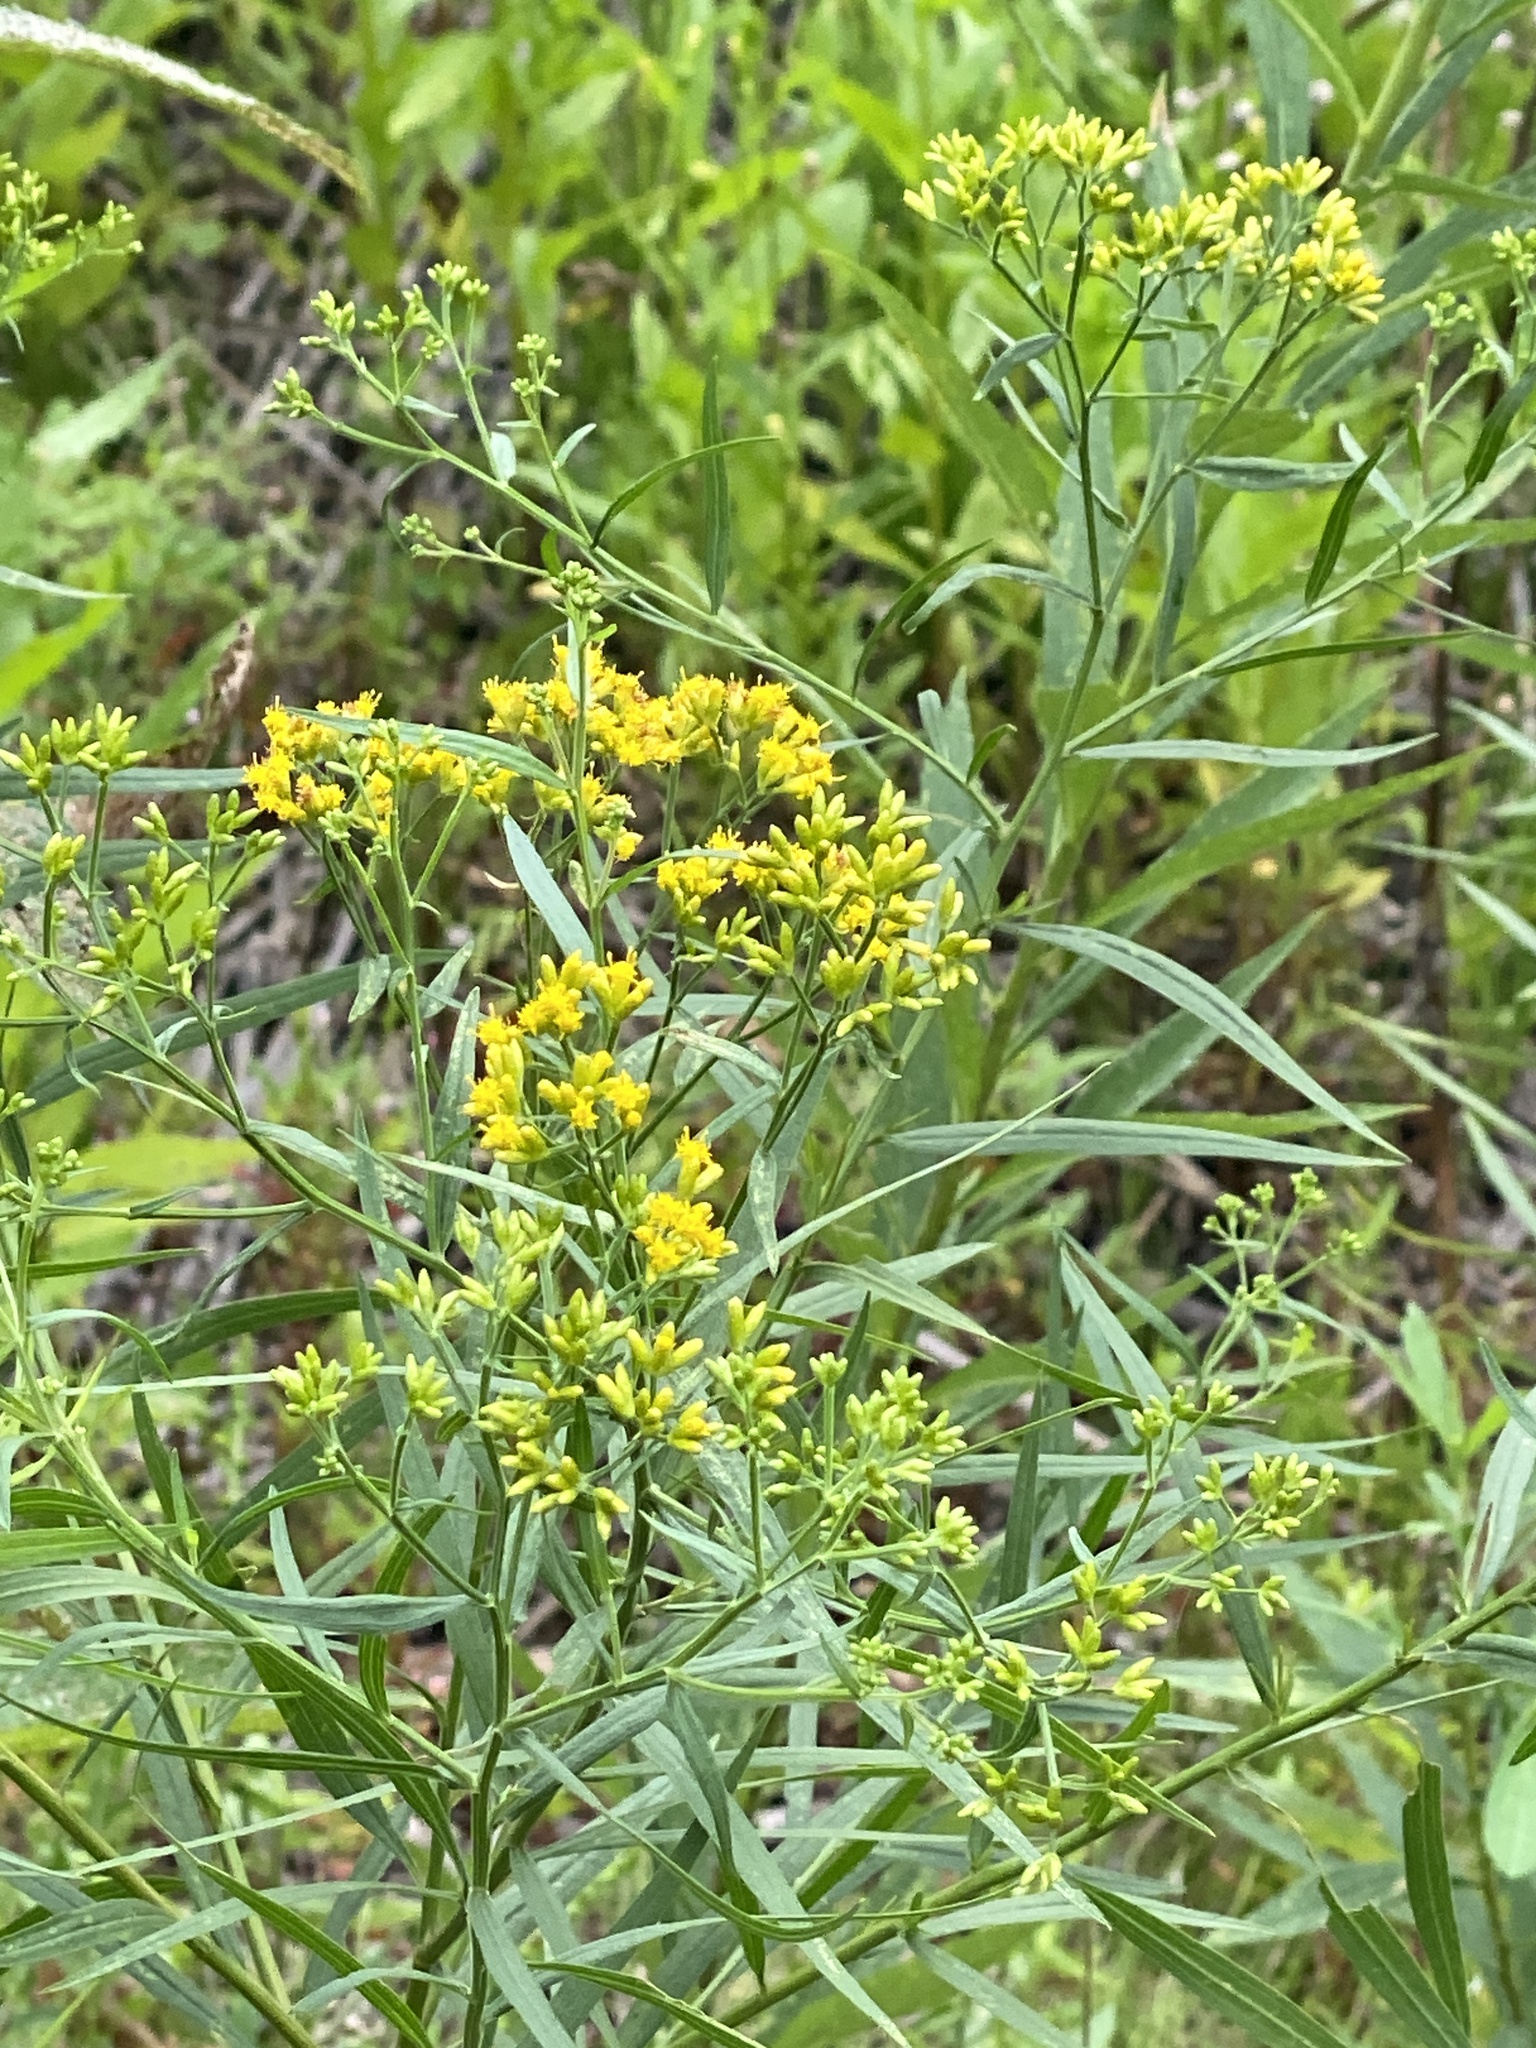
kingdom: Plantae
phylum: Tracheophyta
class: Magnoliopsida
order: Asterales
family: Asteraceae
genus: Euthamia
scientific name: Euthamia graminifolia
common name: Common goldentop
